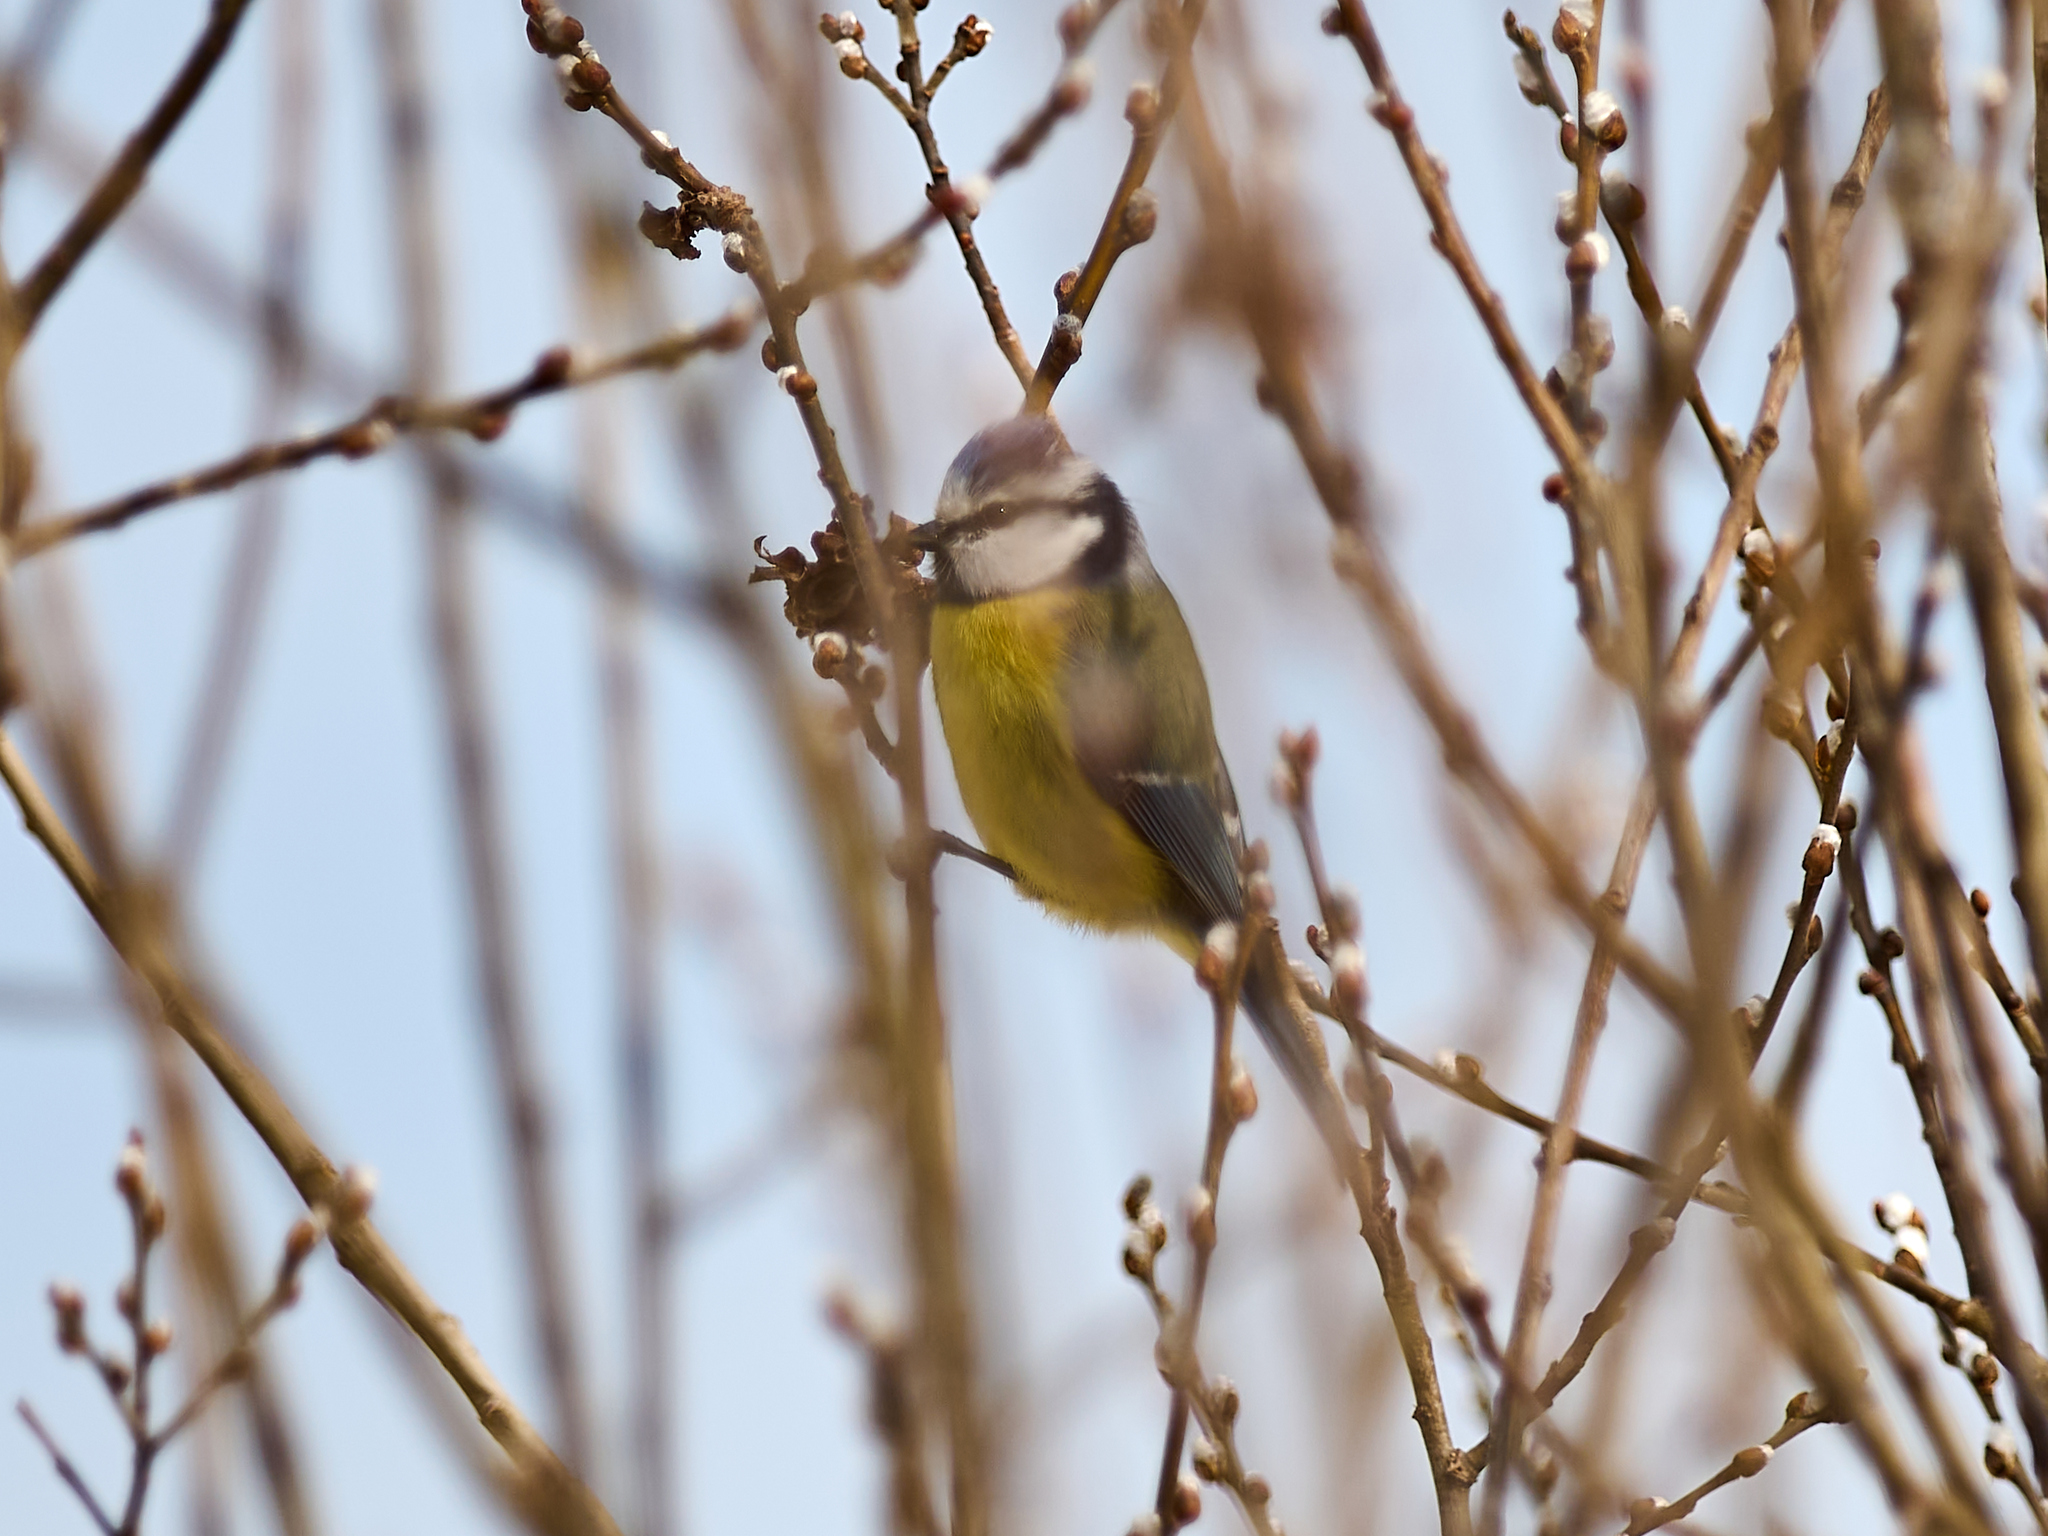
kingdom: Animalia
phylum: Chordata
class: Aves
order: Passeriformes
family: Paridae
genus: Cyanistes
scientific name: Cyanistes caeruleus
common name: Eurasian blue tit
